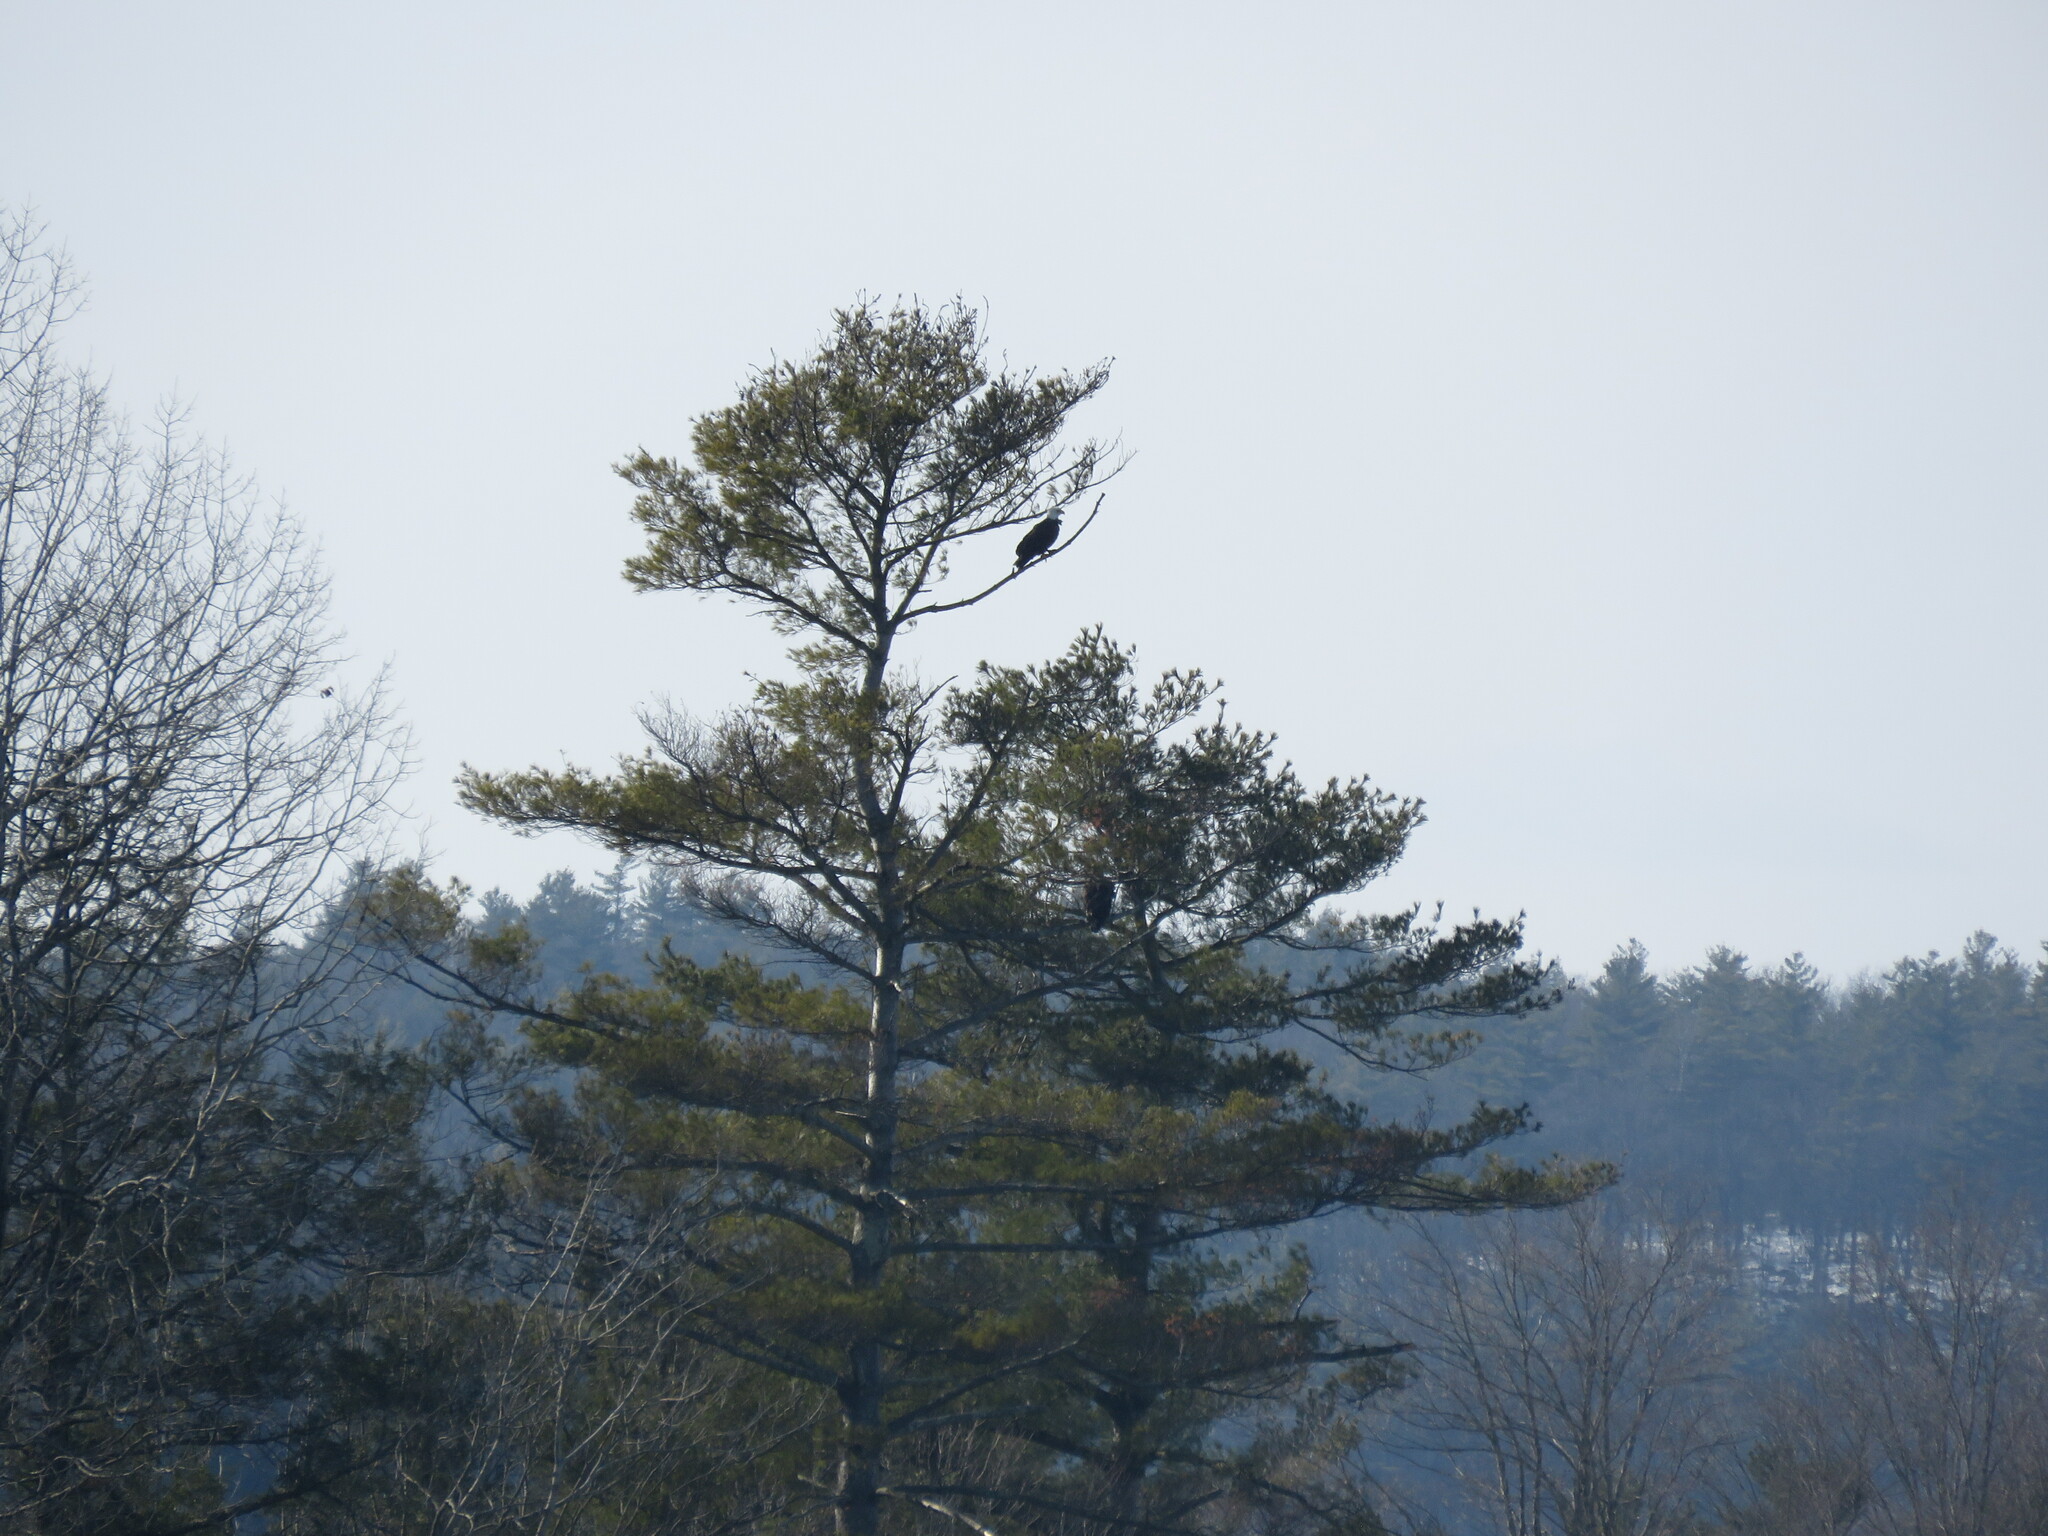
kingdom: Animalia
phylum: Chordata
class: Aves
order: Accipitriformes
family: Accipitridae
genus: Haliaeetus
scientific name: Haliaeetus leucocephalus
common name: Bald eagle
